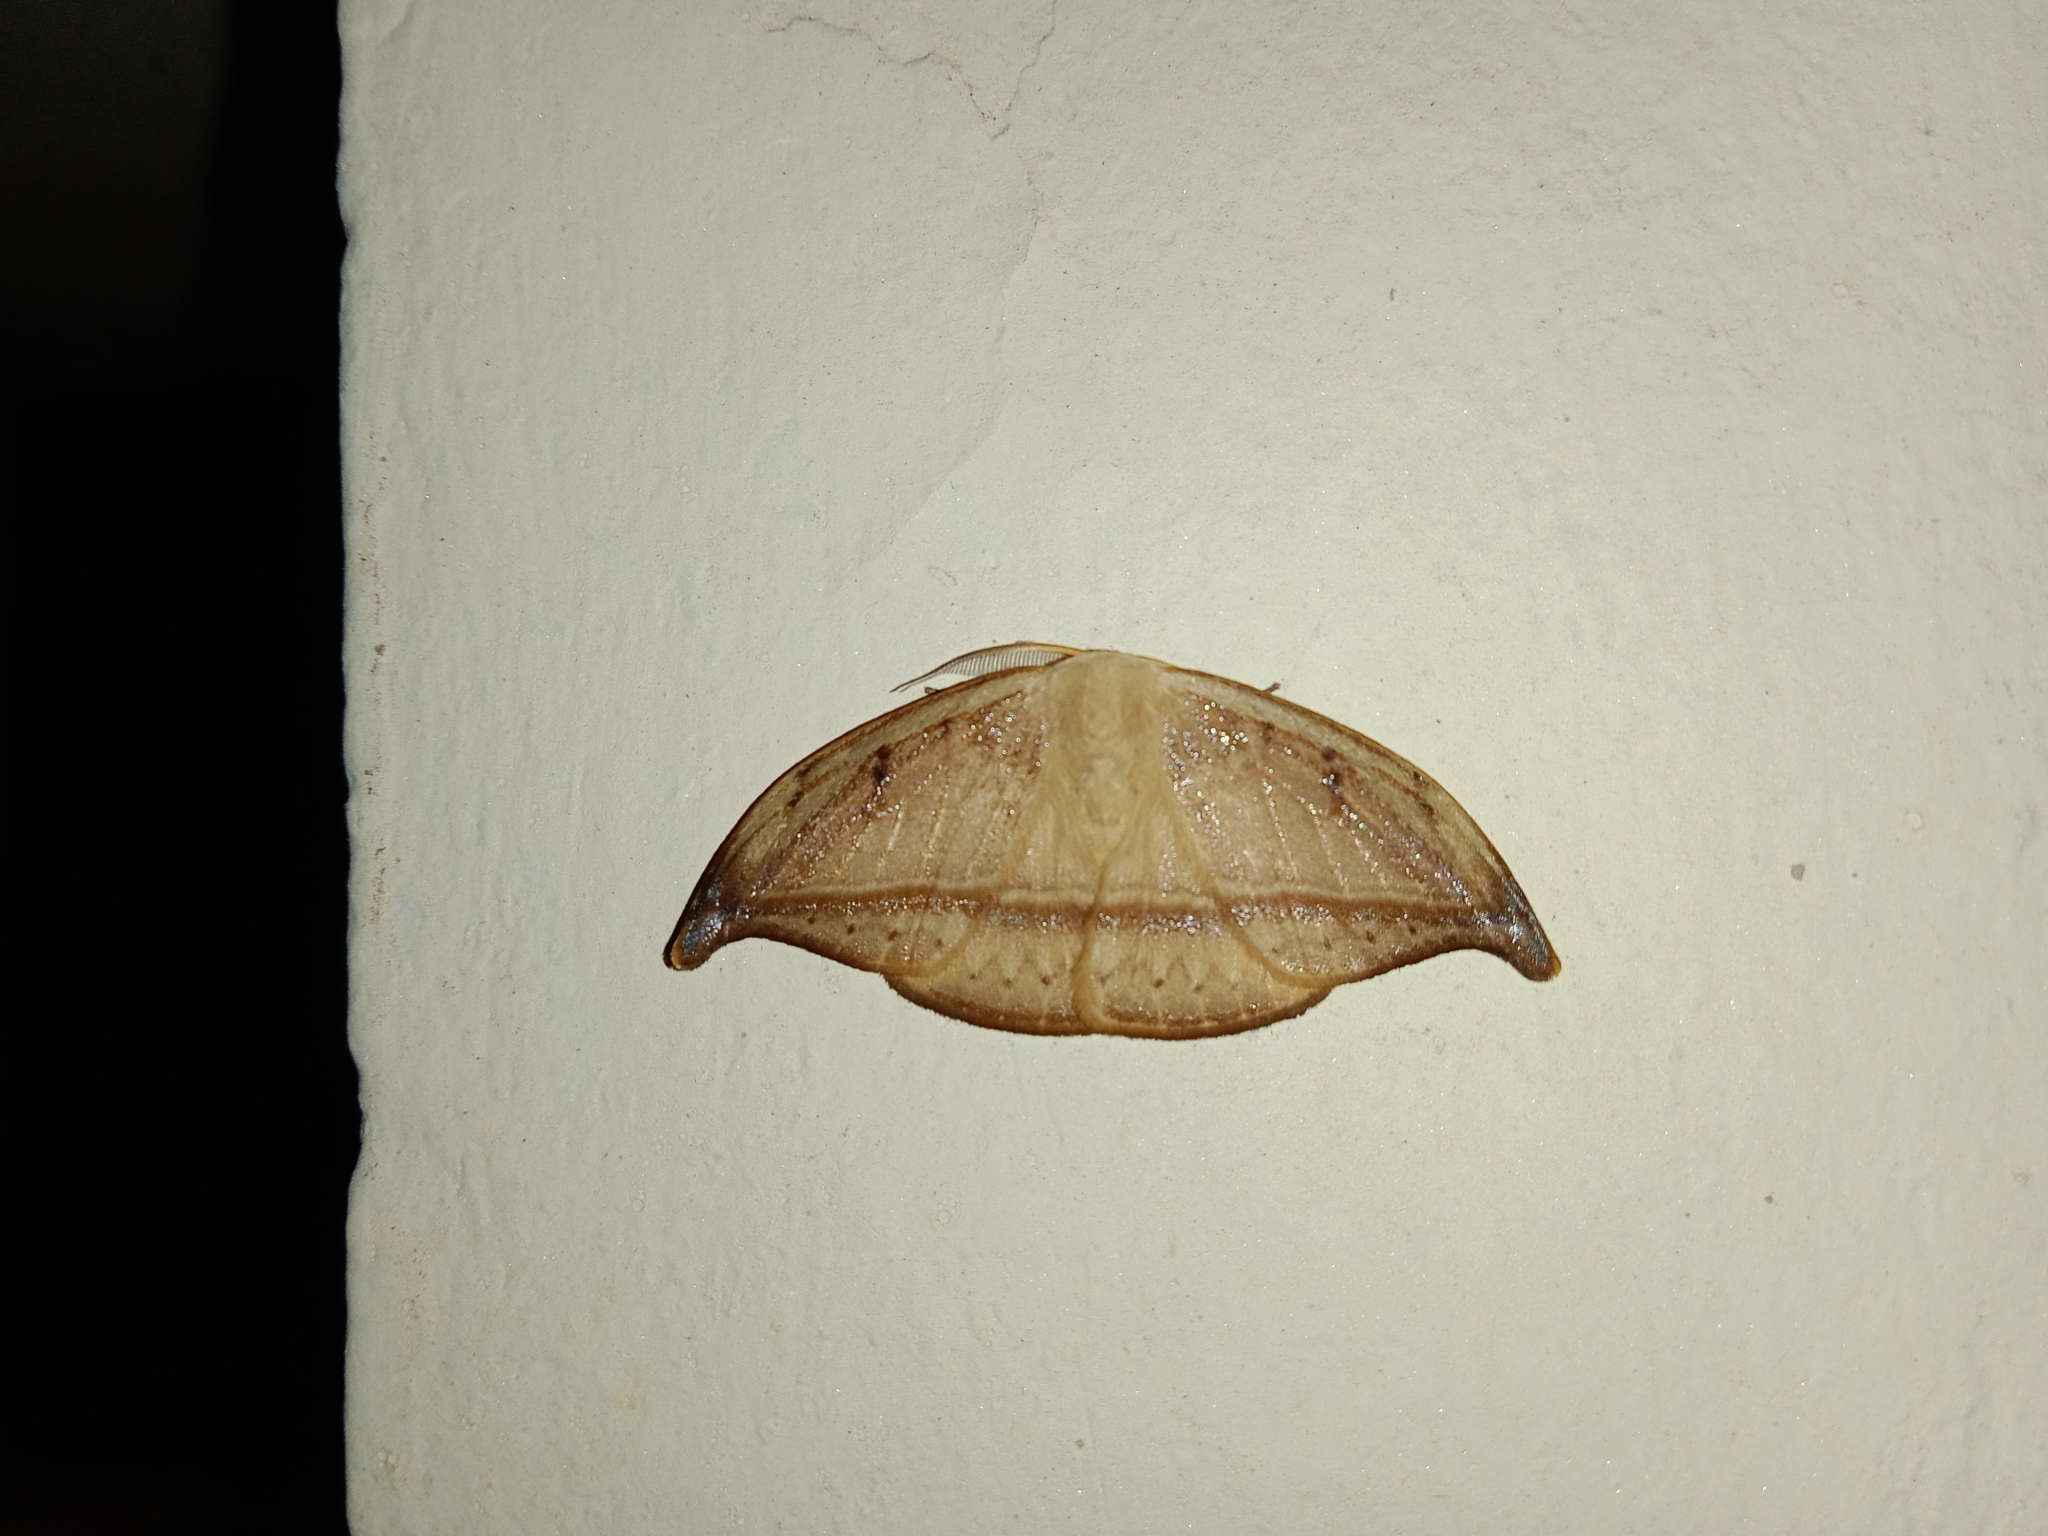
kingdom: Animalia
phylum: Arthropoda
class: Insecta
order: Lepidoptera
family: Drepanidae
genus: Callidrepana
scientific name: Callidrepana patrana
